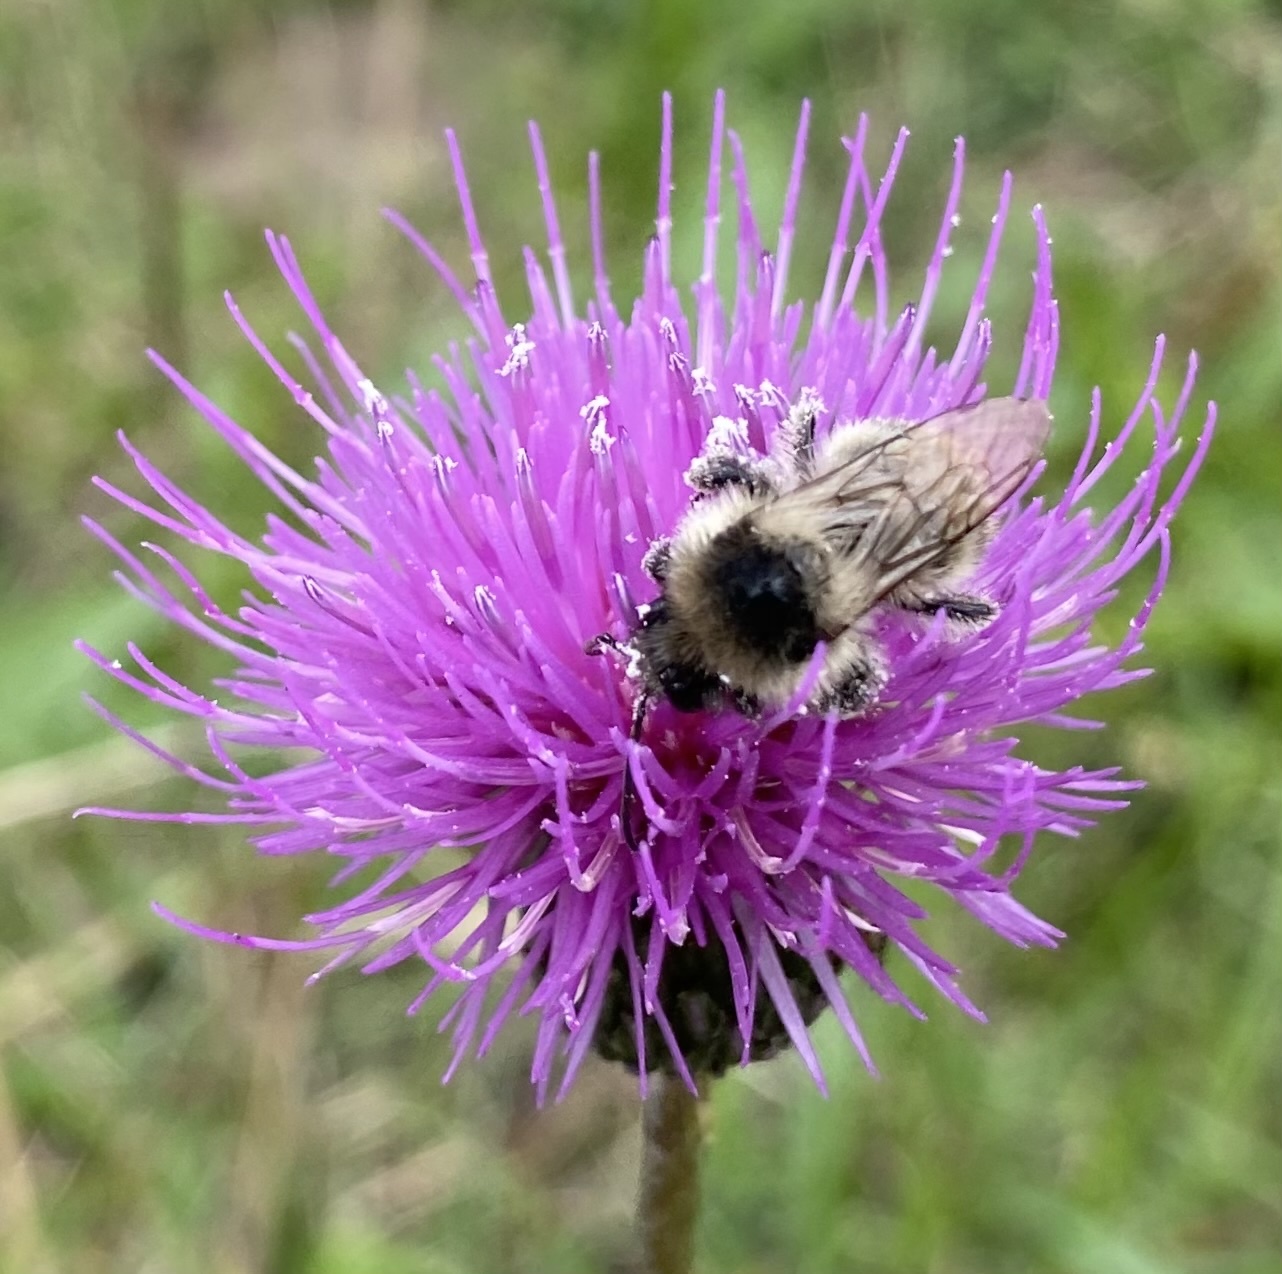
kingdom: Animalia
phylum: Arthropoda
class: Insecta
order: Hymenoptera
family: Apidae
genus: Bombus
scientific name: Bombus sylvarum
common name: Shrill carder bee
